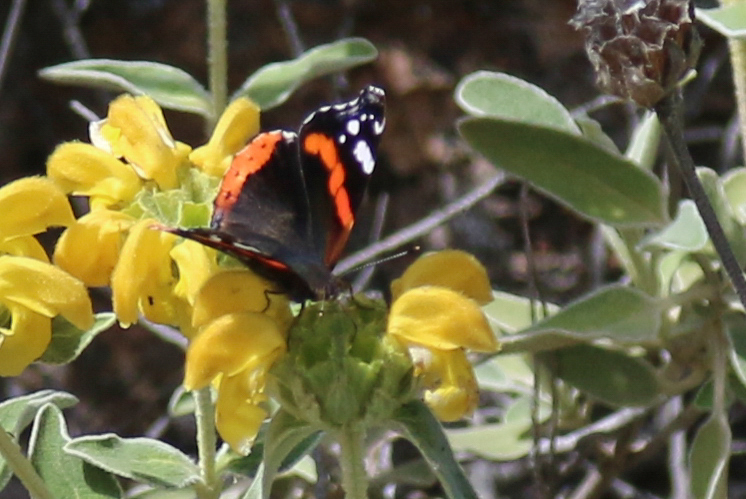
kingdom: Animalia
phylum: Arthropoda
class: Insecta
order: Lepidoptera
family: Nymphalidae
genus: Vanessa
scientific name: Vanessa atalanta
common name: Red admiral
